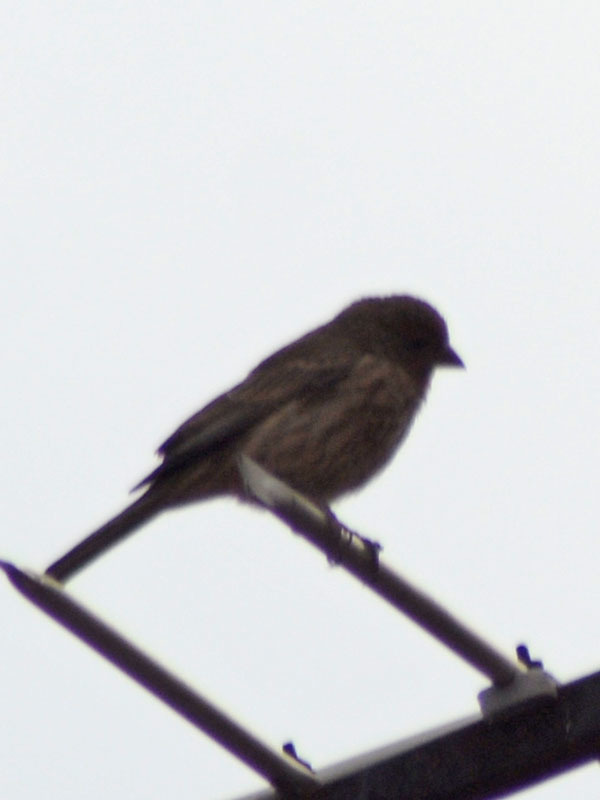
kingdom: Animalia
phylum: Chordata
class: Aves
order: Passeriformes
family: Fringillidae
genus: Haemorhous
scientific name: Haemorhous mexicanus
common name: House finch
